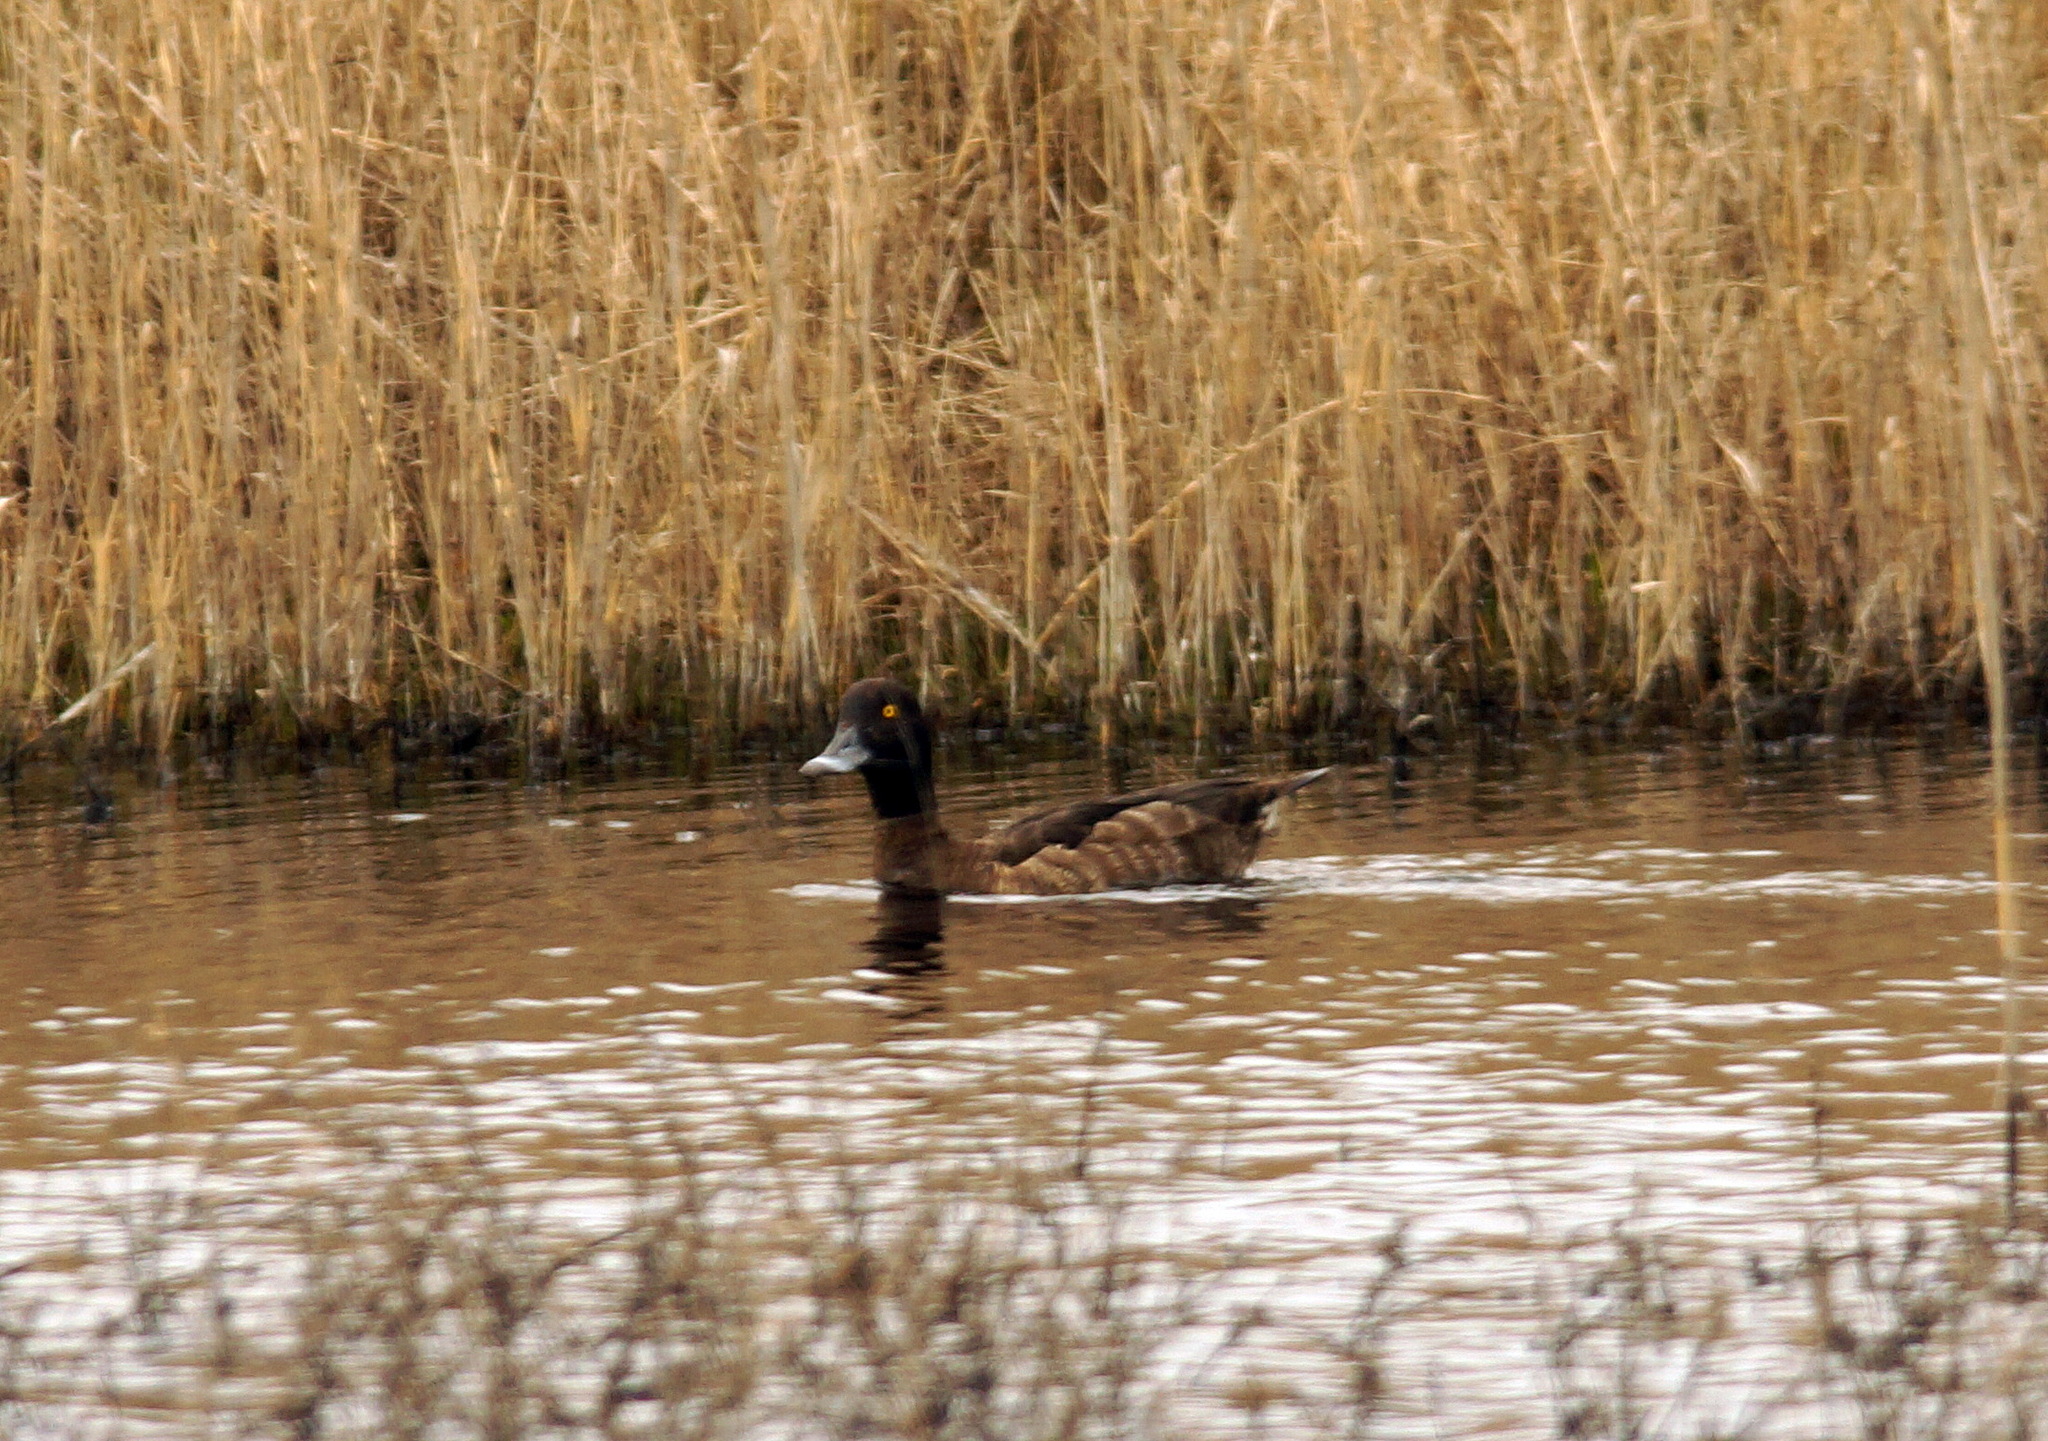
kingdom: Animalia
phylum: Chordata
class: Aves
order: Anseriformes
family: Anatidae
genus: Aythya
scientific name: Aythya fuligula
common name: Tufted duck
